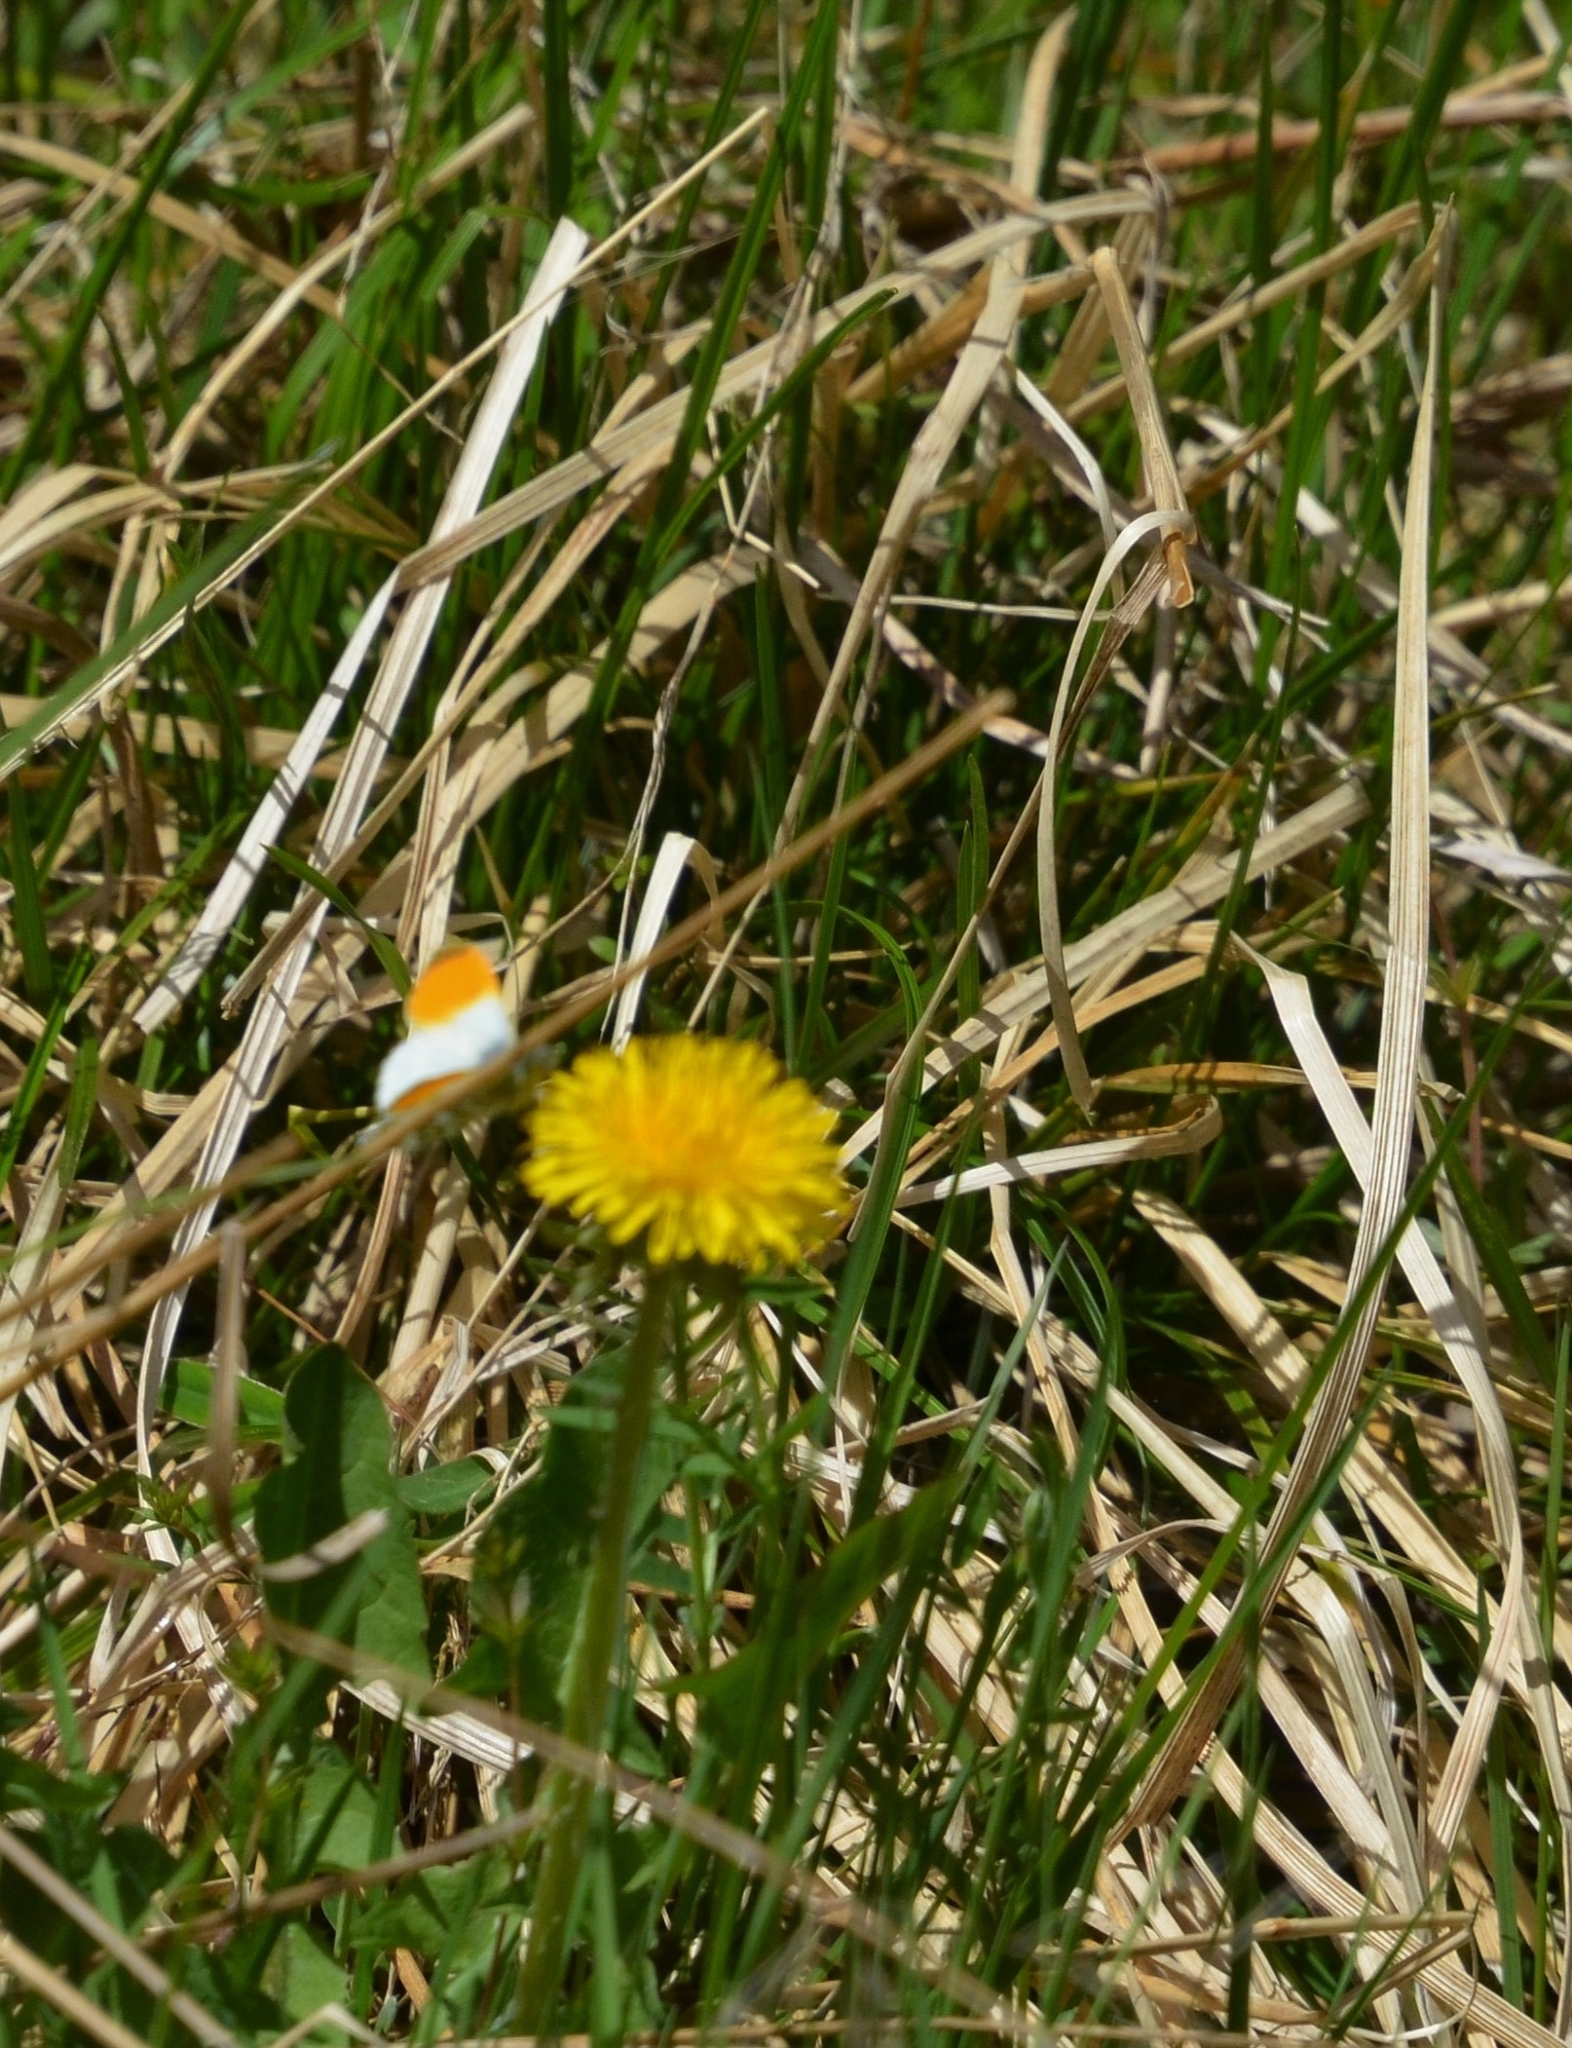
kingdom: Animalia
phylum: Arthropoda
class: Insecta
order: Lepidoptera
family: Pieridae
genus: Anthocharis
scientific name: Anthocharis cardamines
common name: Orange-tip
